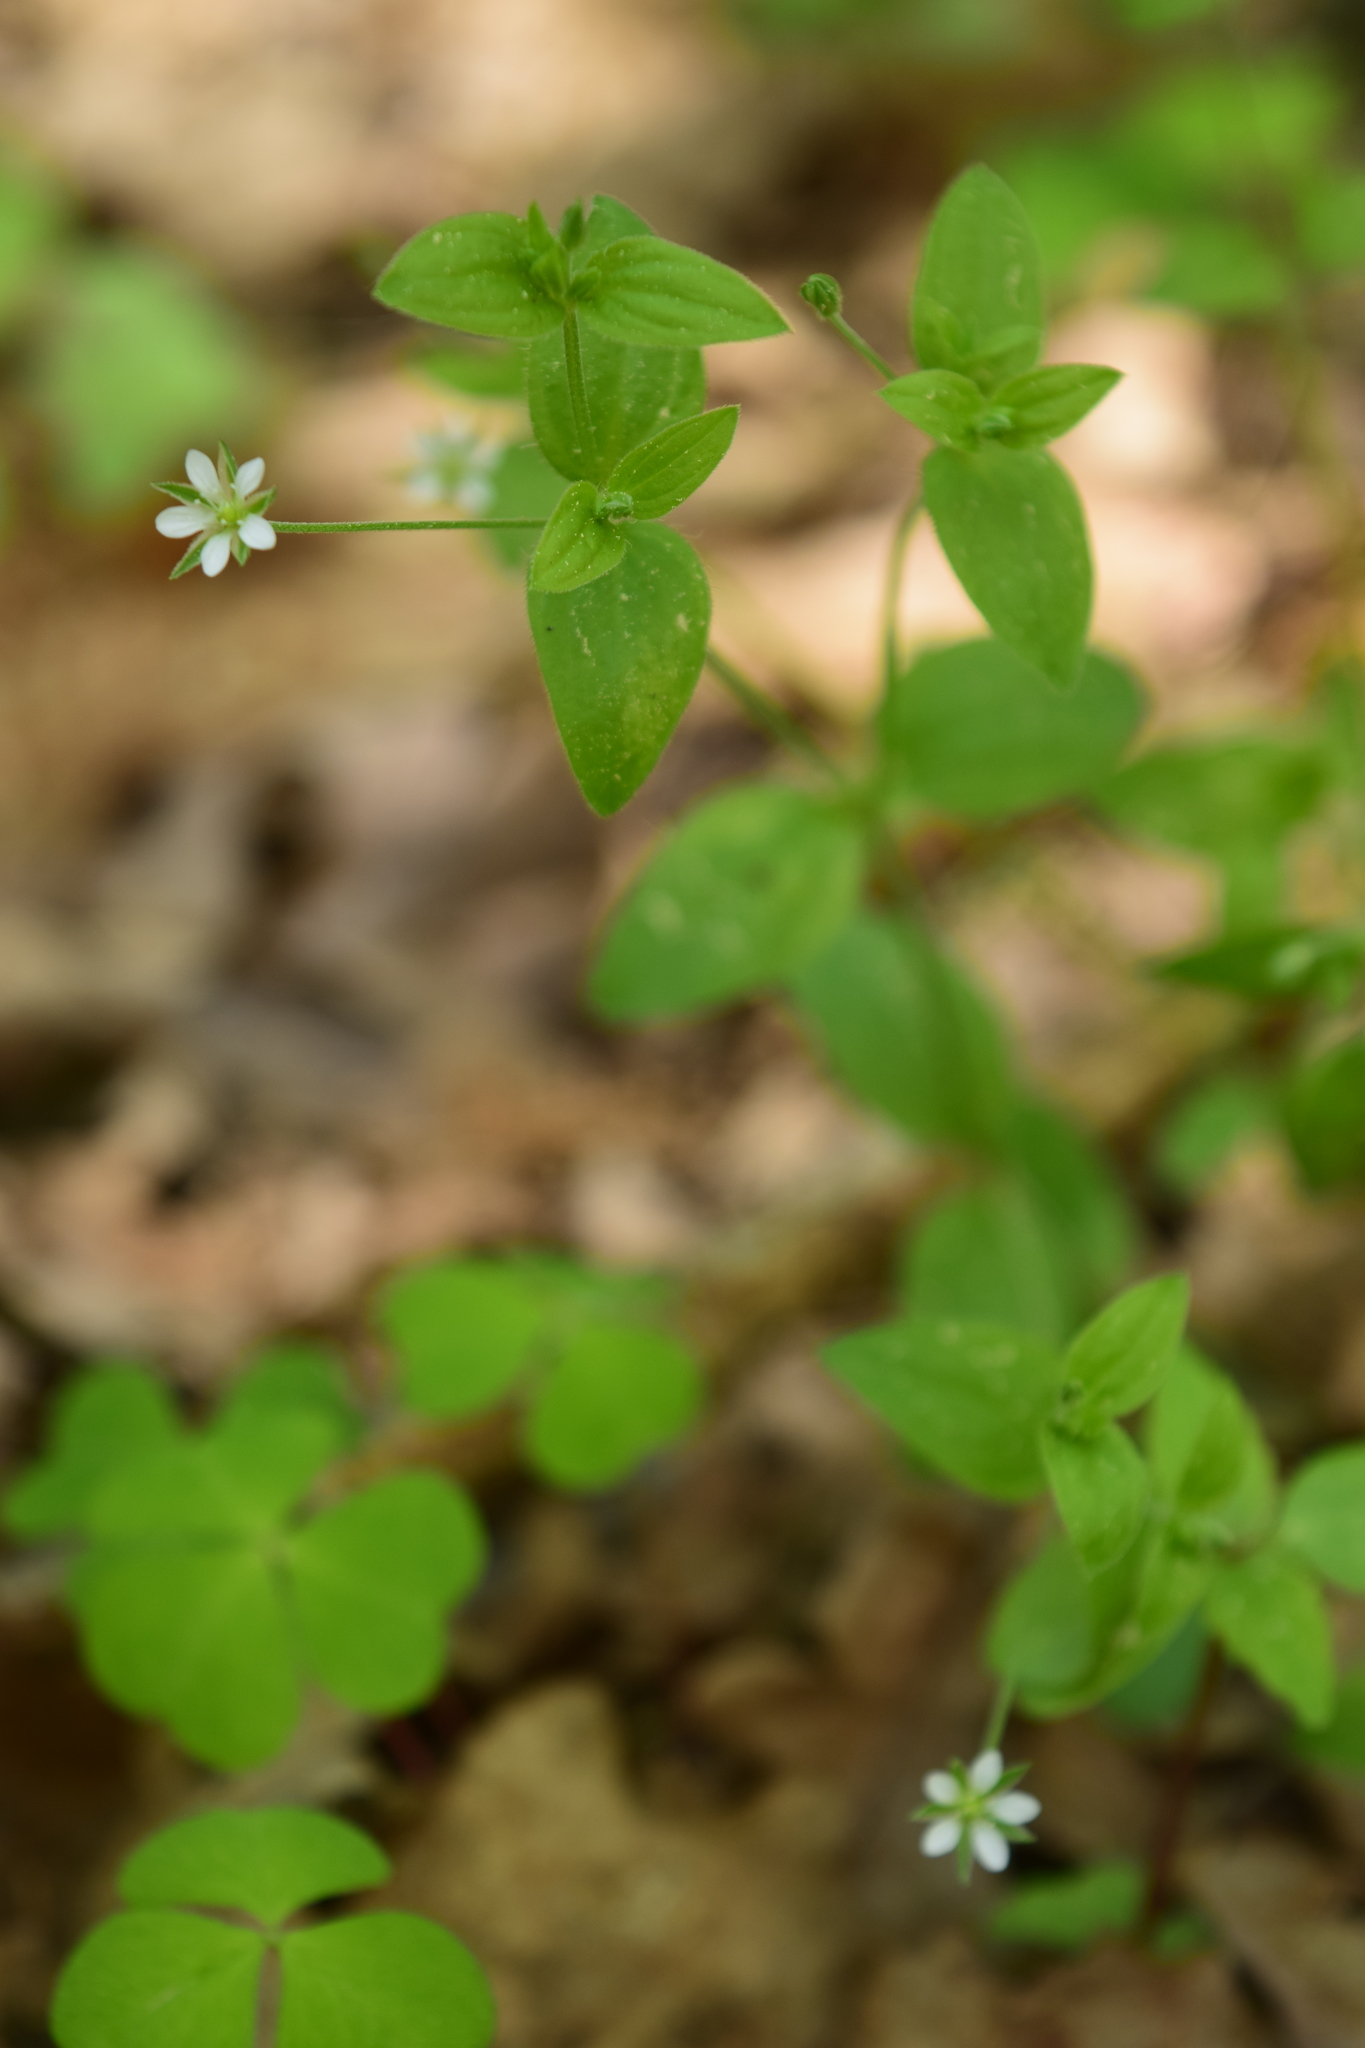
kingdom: Plantae
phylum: Tracheophyta
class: Magnoliopsida
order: Caryophyllales
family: Caryophyllaceae
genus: Moehringia
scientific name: Moehringia trinervia
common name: Three-nerved sandwort
